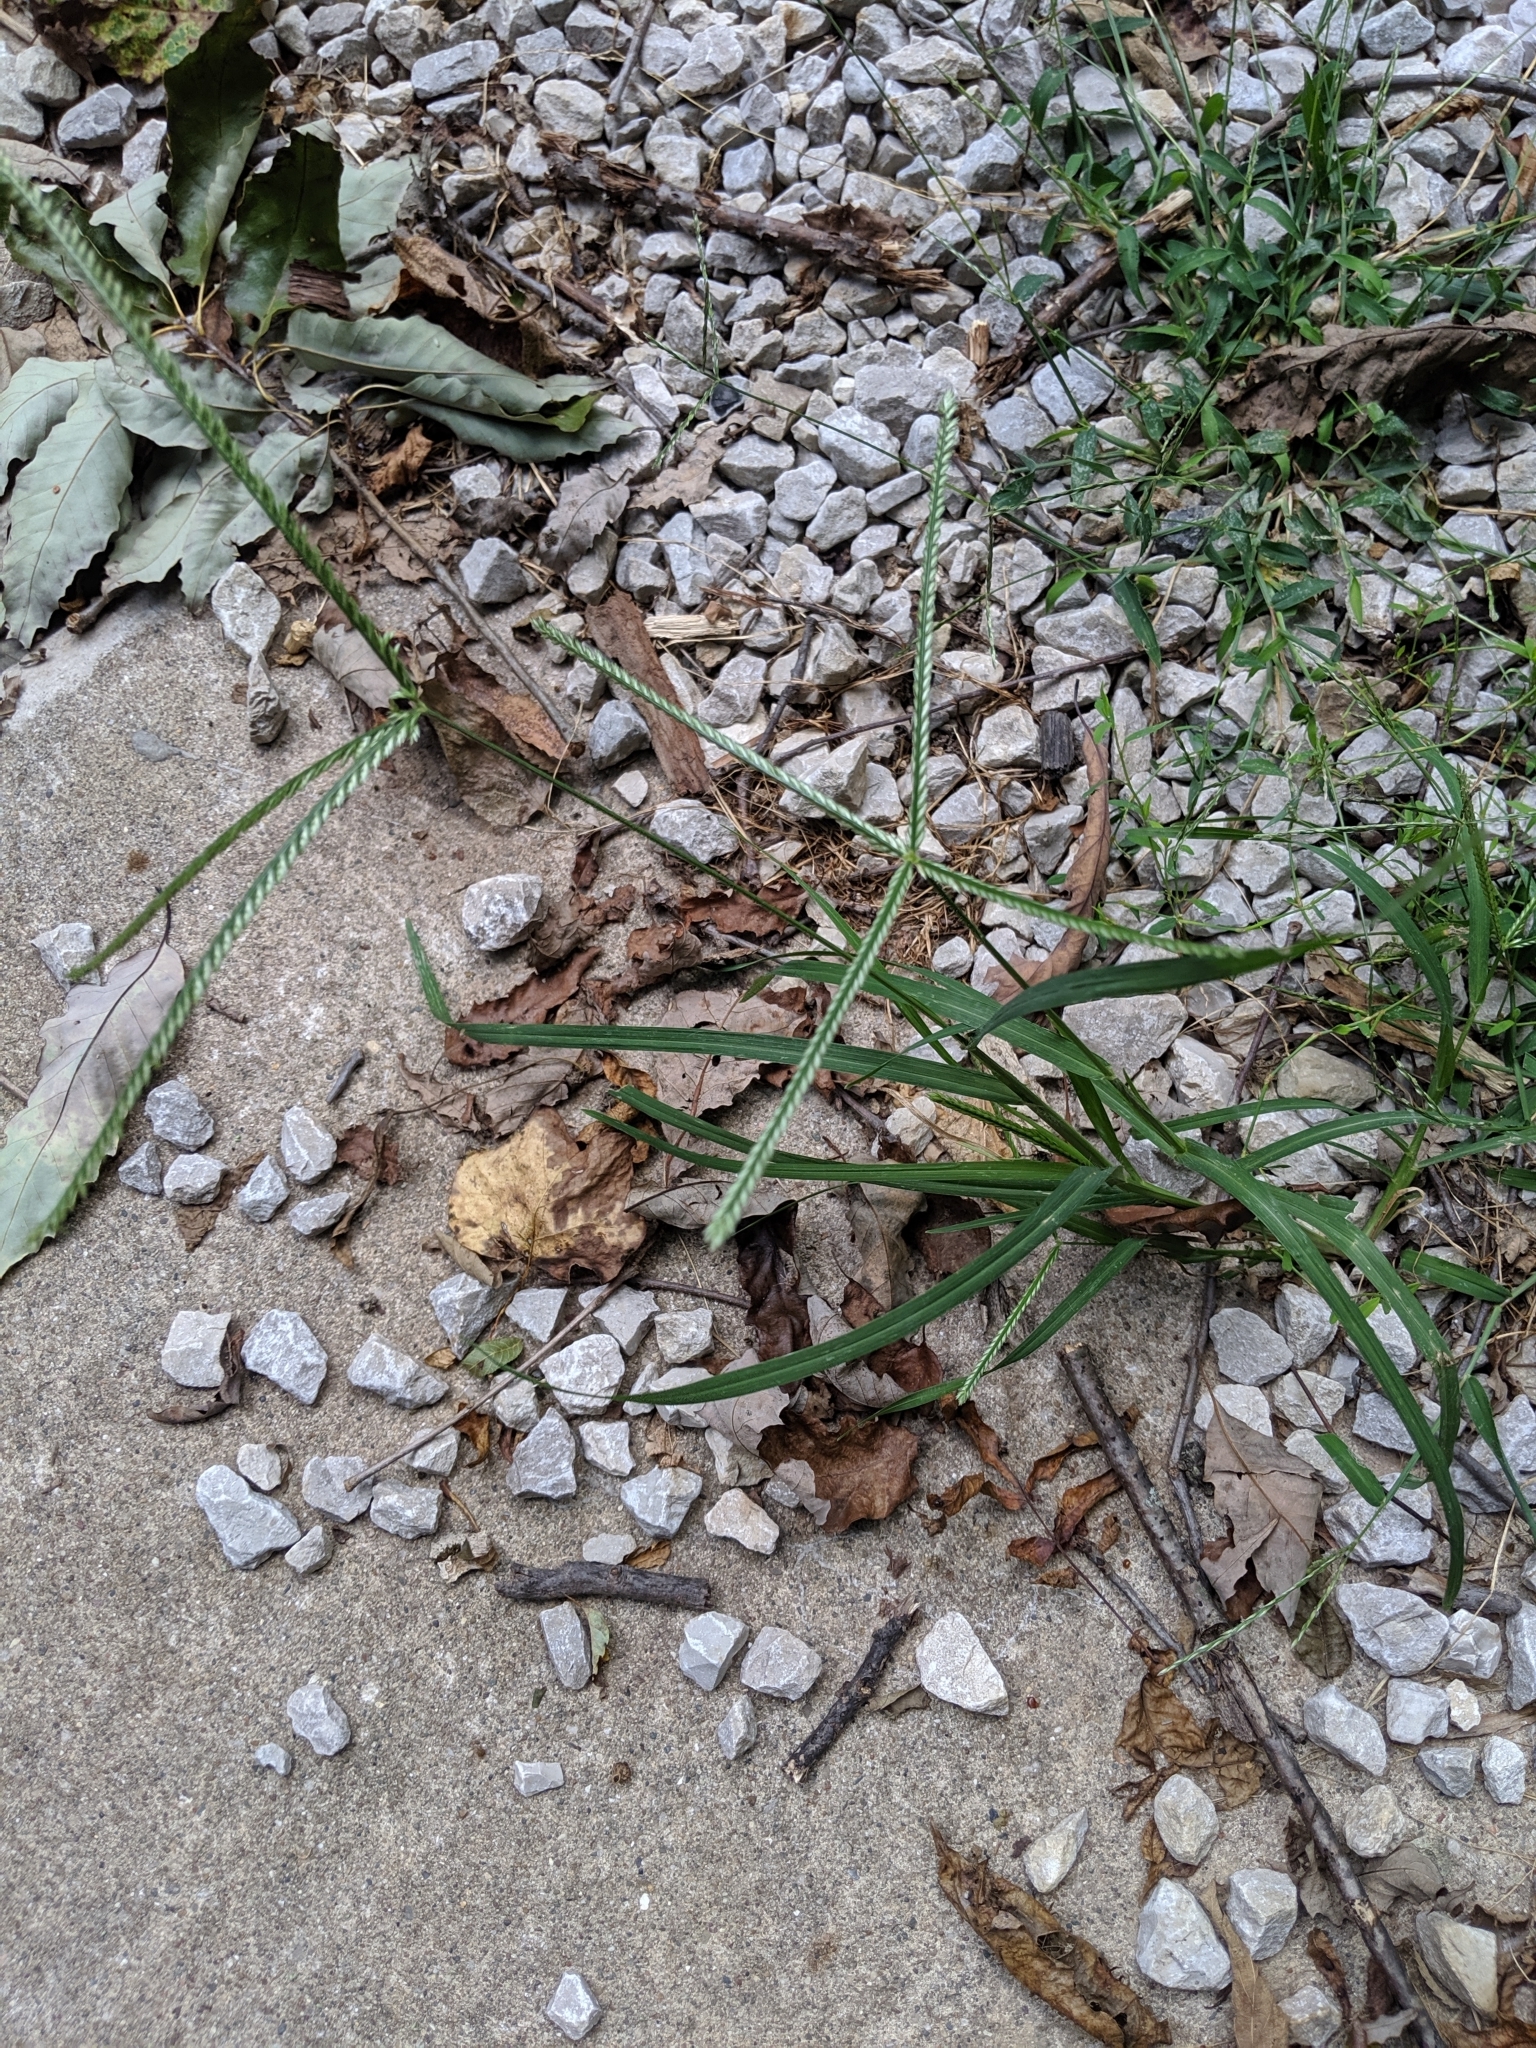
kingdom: Plantae
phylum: Tracheophyta
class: Liliopsida
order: Poales
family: Poaceae
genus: Eleusine
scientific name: Eleusine indica
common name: Yard-grass
